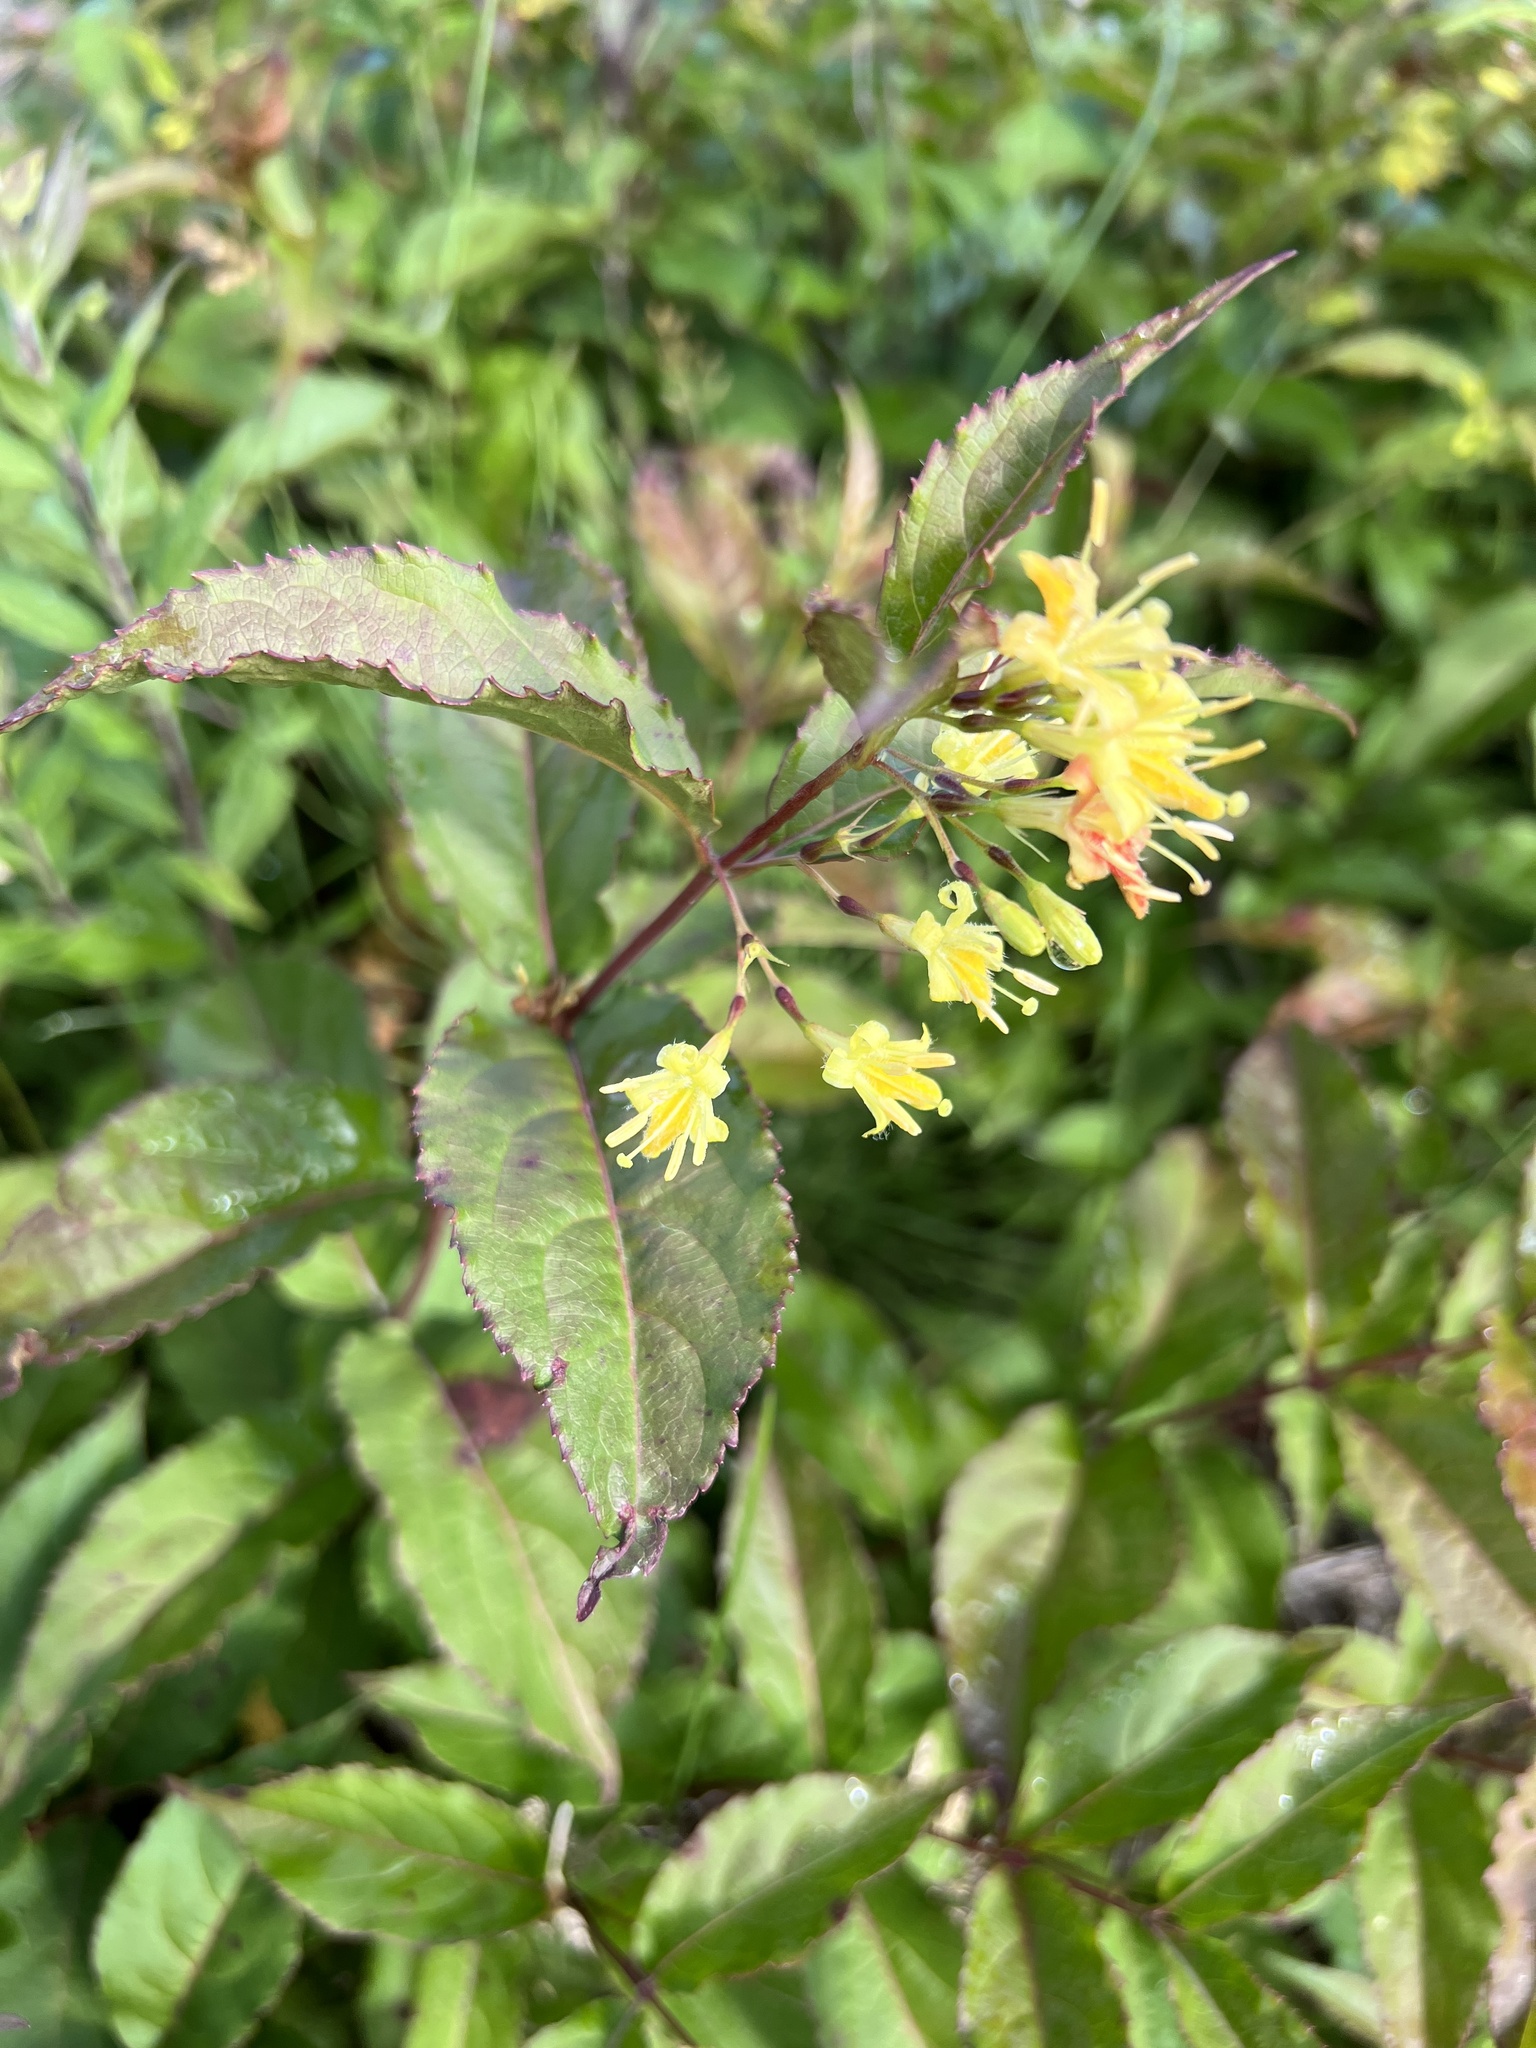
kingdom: Plantae
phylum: Tracheophyta
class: Magnoliopsida
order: Dipsacales
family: Caprifoliaceae
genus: Diervilla
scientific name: Diervilla lonicera
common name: Bush-honeysuckle
